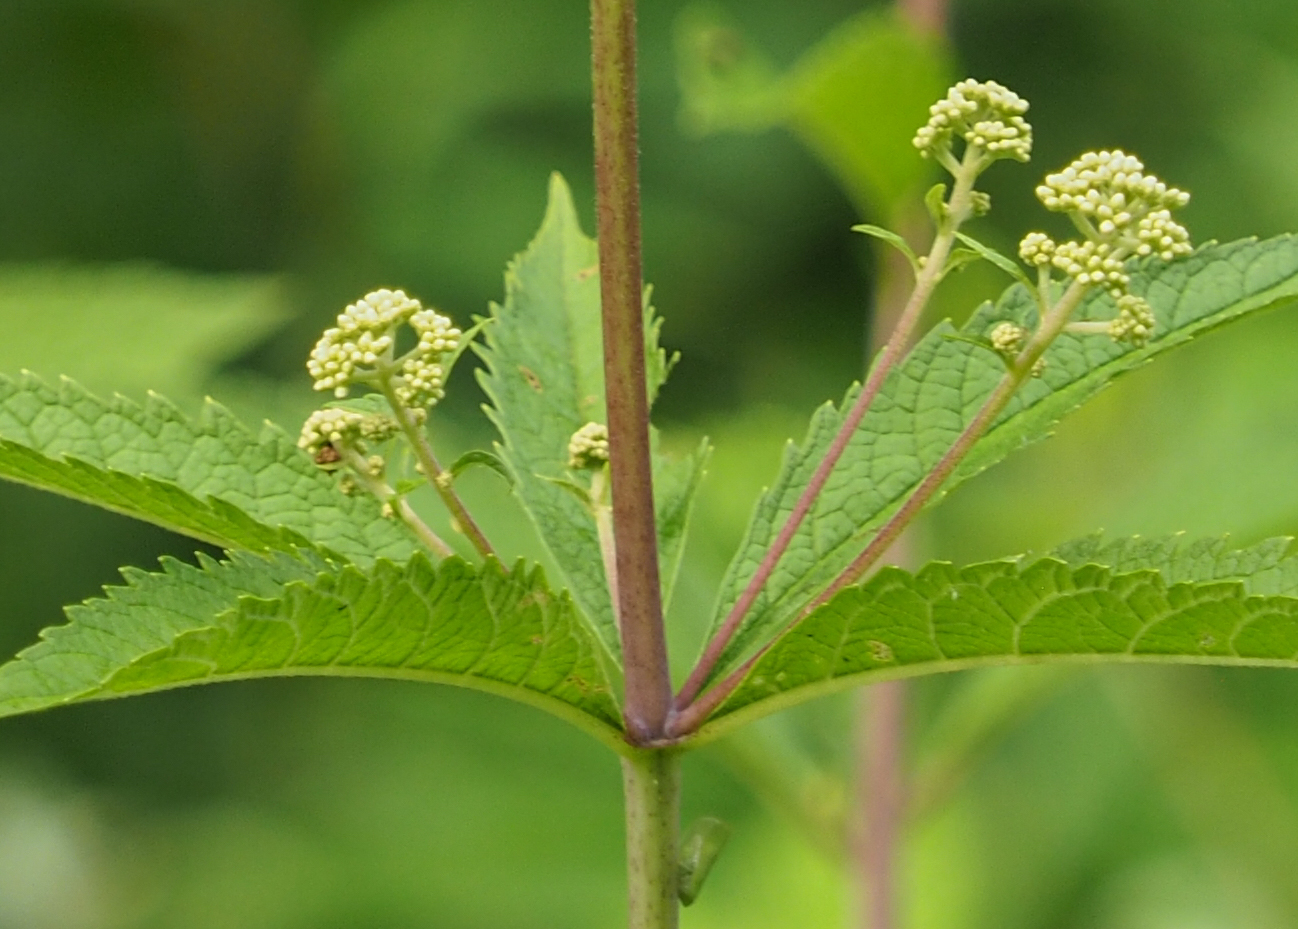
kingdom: Plantae
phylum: Tracheophyta
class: Magnoliopsida
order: Asterales
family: Asteraceae
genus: Eutrochium
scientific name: Eutrochium fistulosum
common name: Trumpetweed
